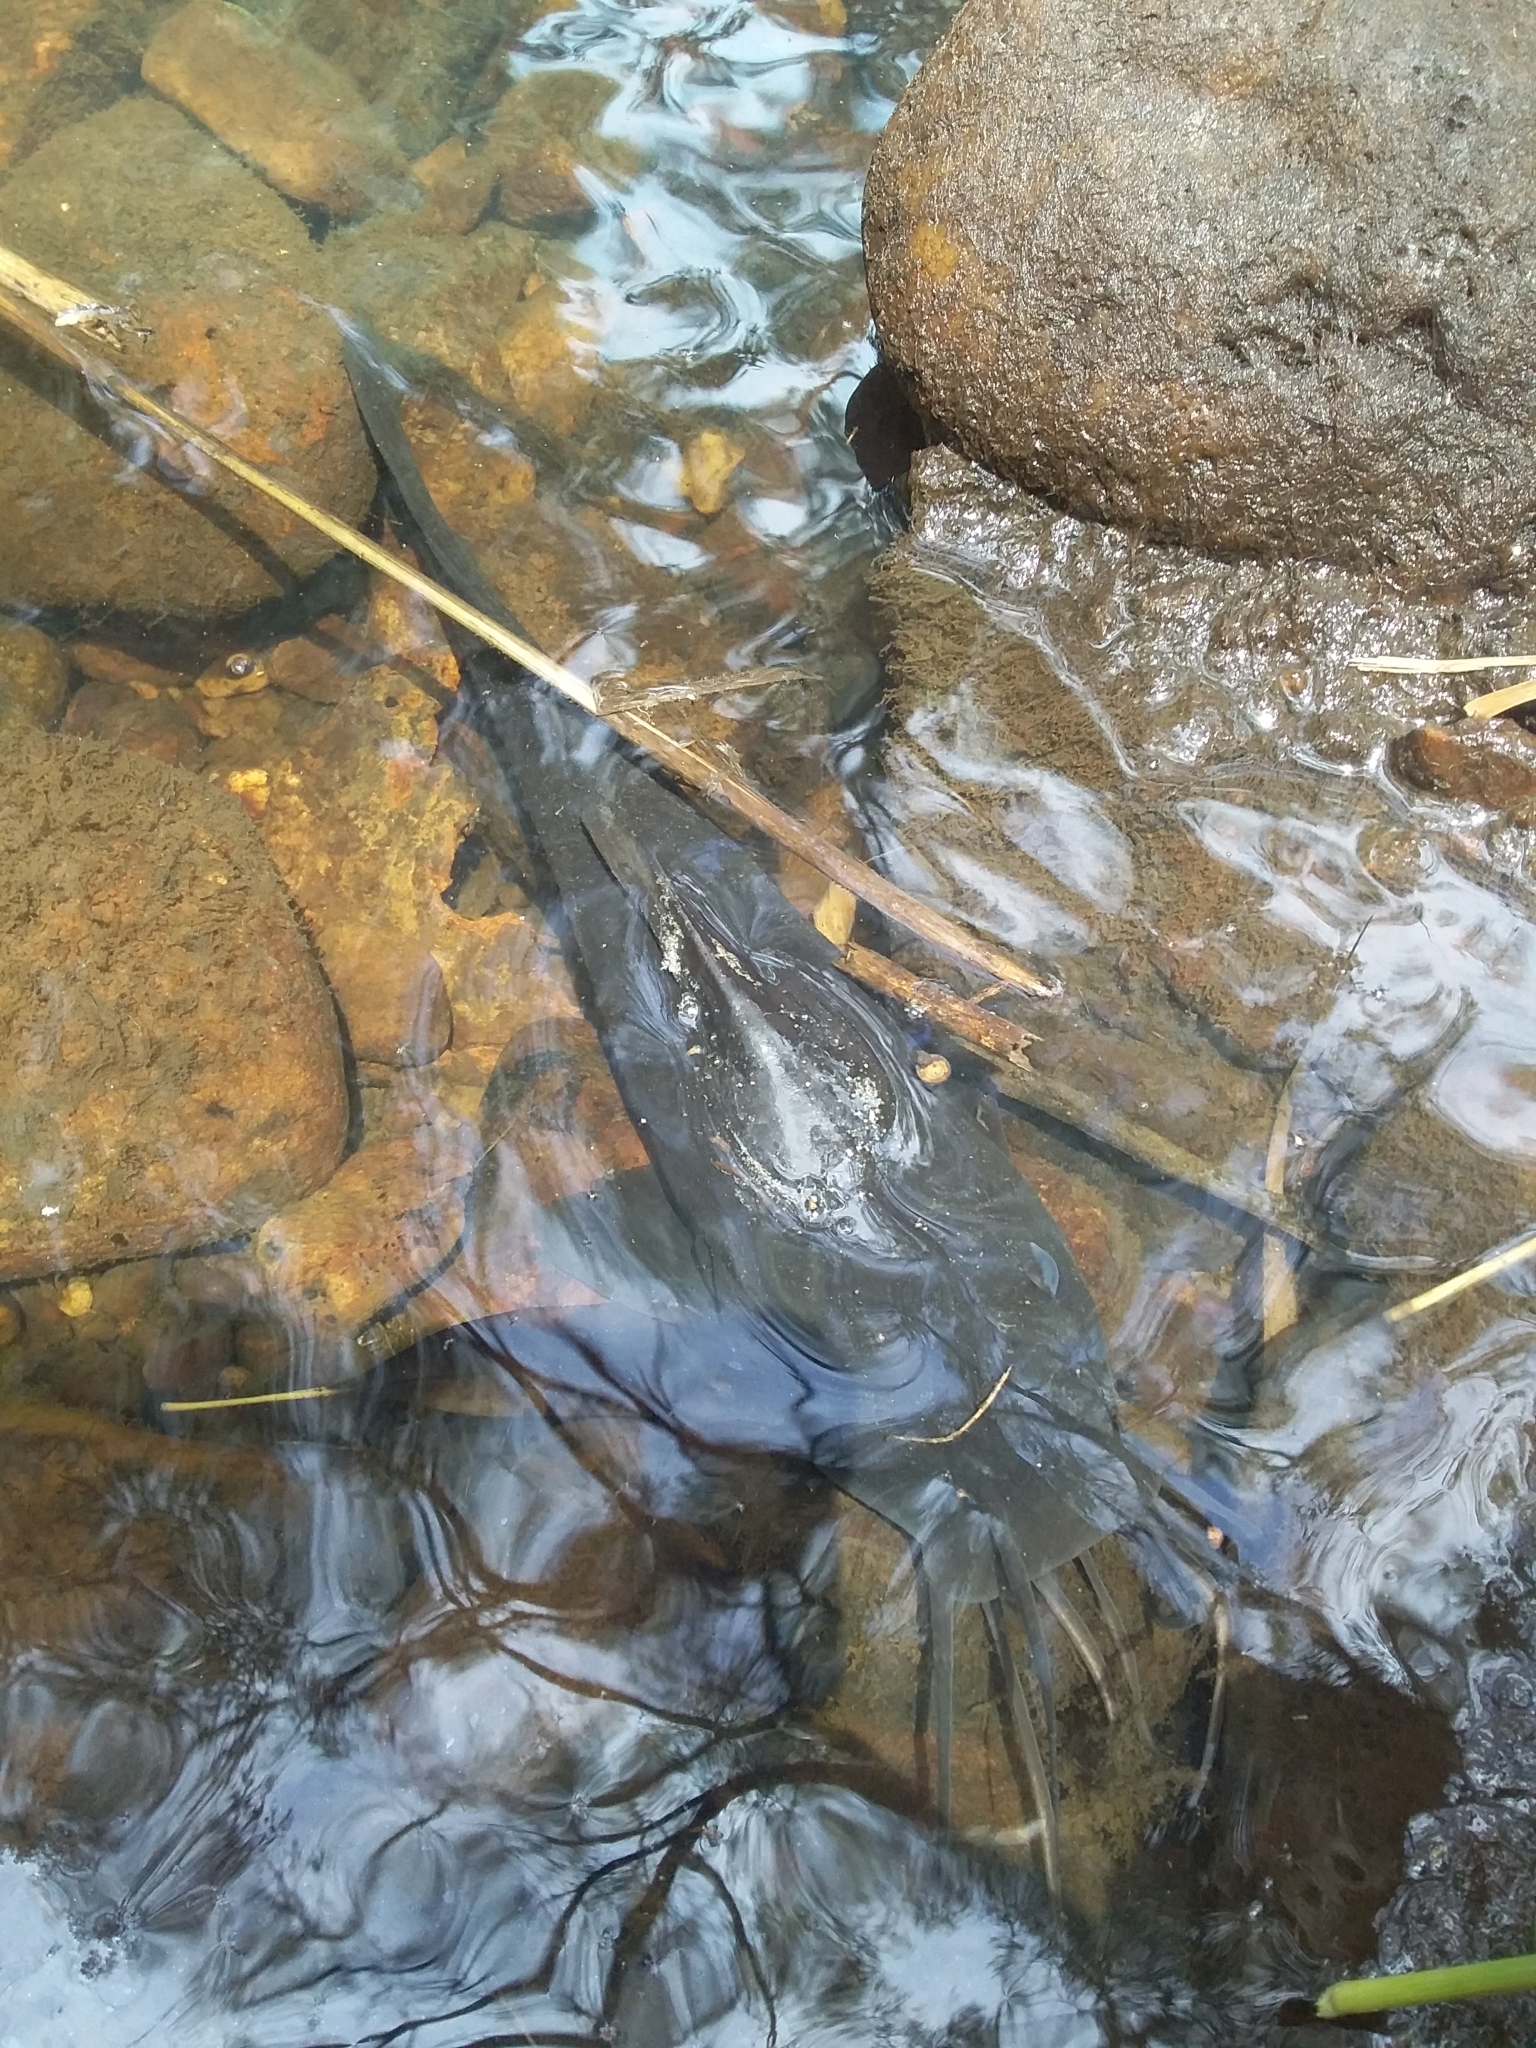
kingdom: Animalia
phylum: Chordata
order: Siluriformes
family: Plotosidae
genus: Tandanus
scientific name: Tandanus tandanus
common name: Eel-tailed catfish
